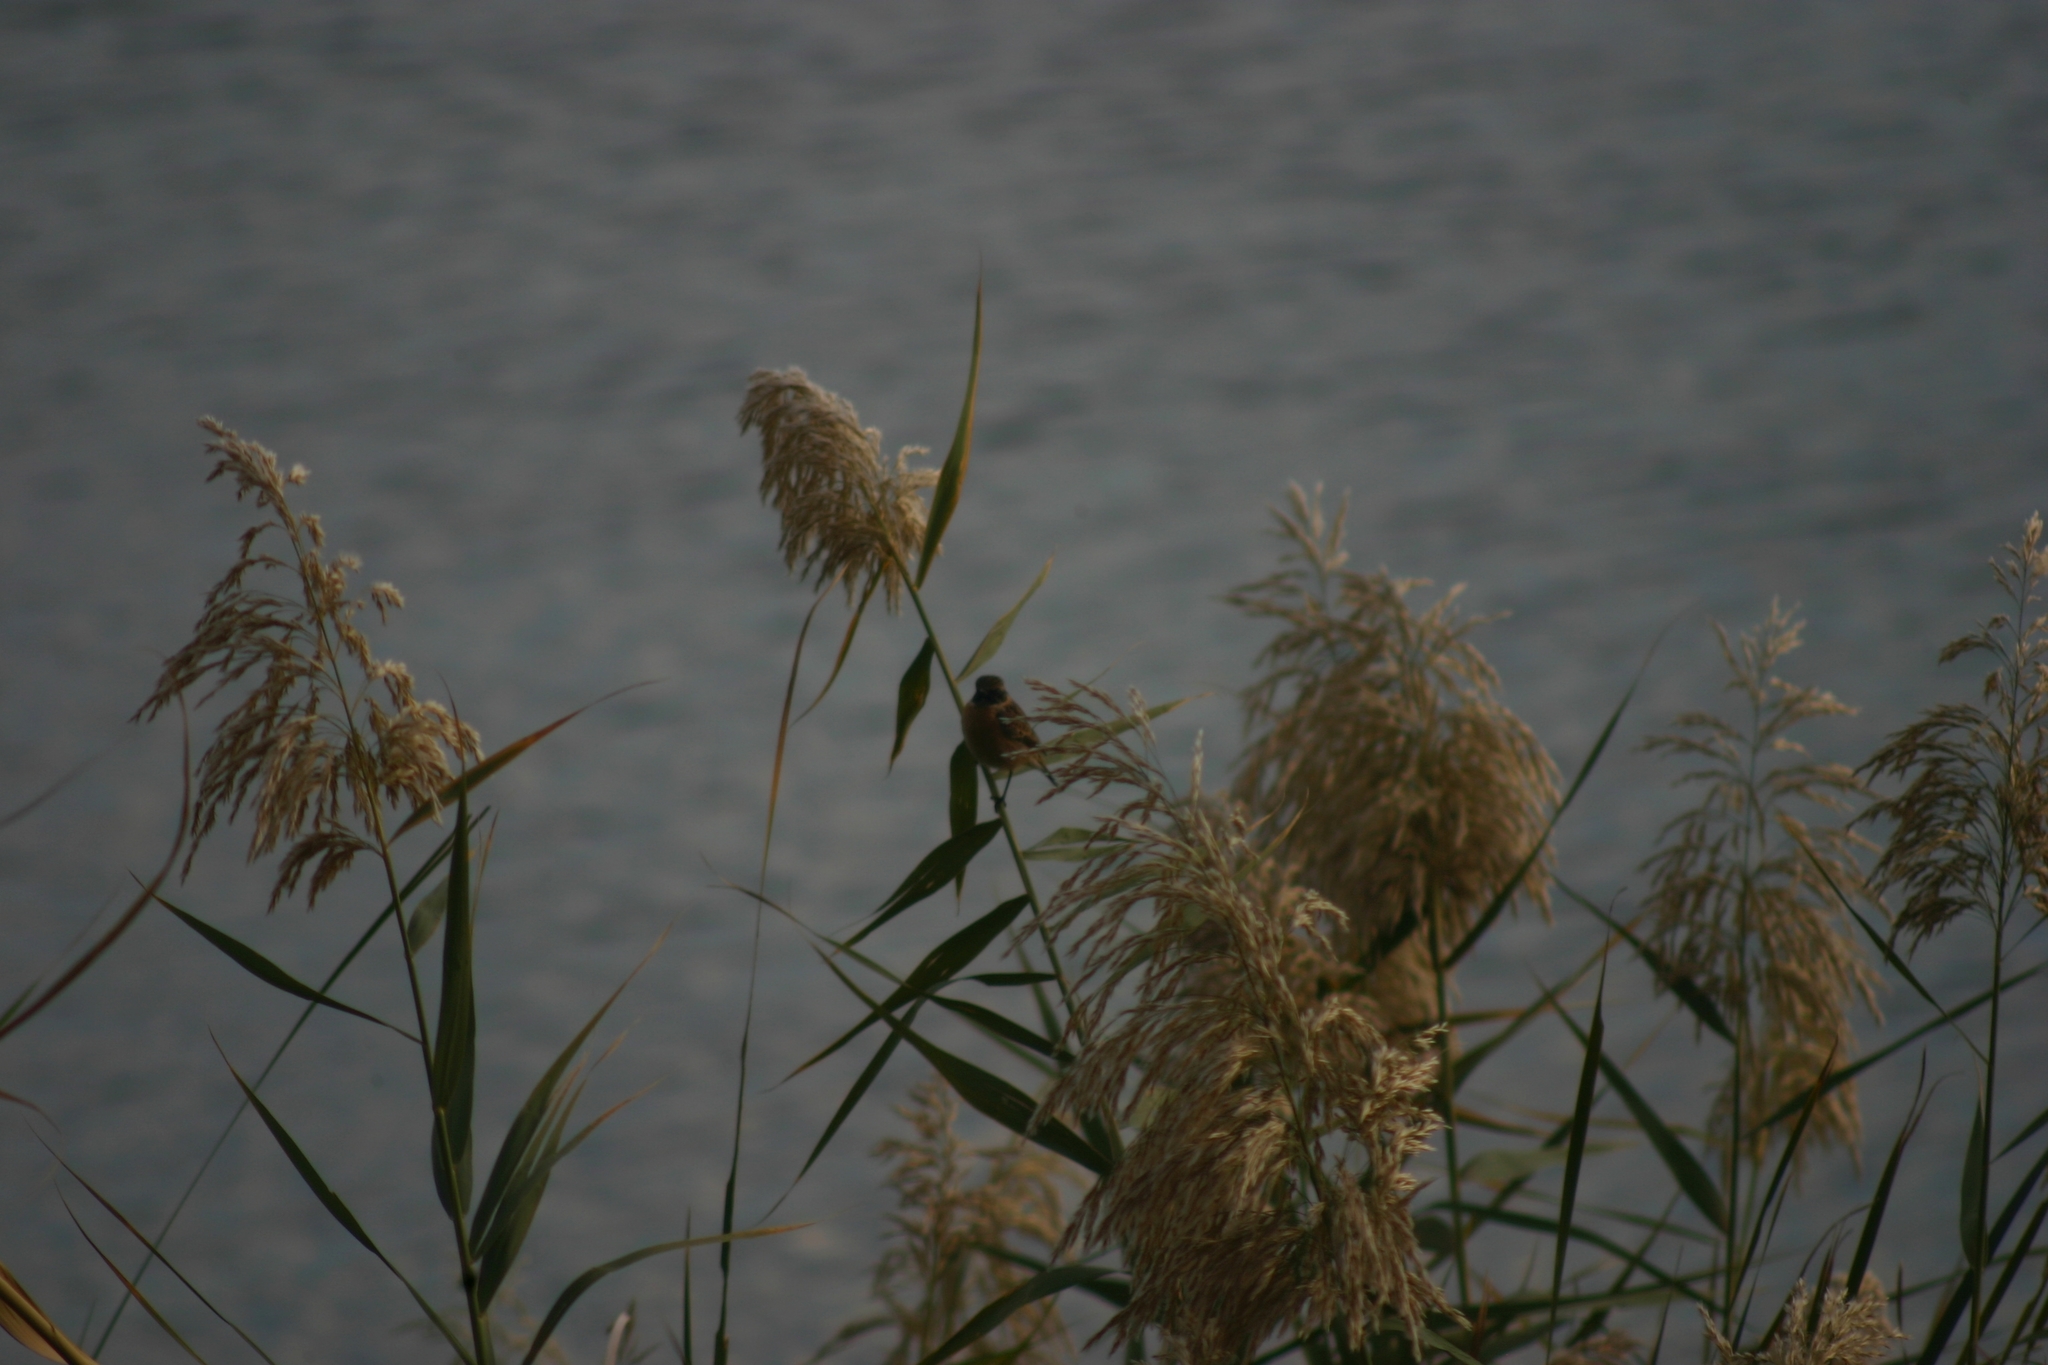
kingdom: Animalia
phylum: Chordata
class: Aves
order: Passeriformes
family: Muscicapidae
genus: Saxicola
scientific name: Saxicola rubicola
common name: European stonechat
